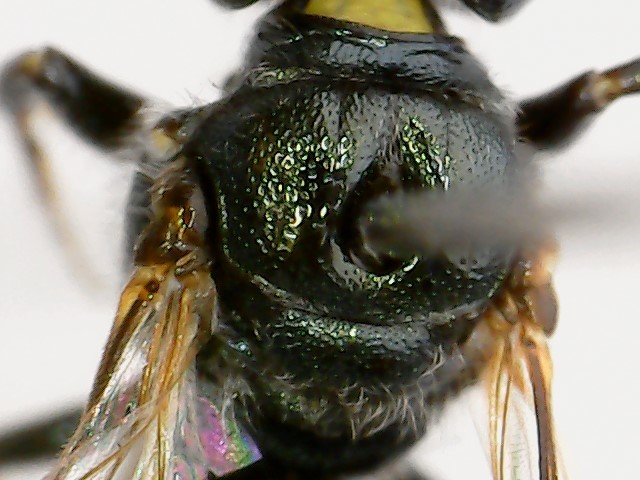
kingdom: Animalia
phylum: Arthropoda
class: Insecta
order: Hymenoptera
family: Apidae
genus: Ceratina
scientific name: Ceratina calcarata
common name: Spurred carpenter bee
